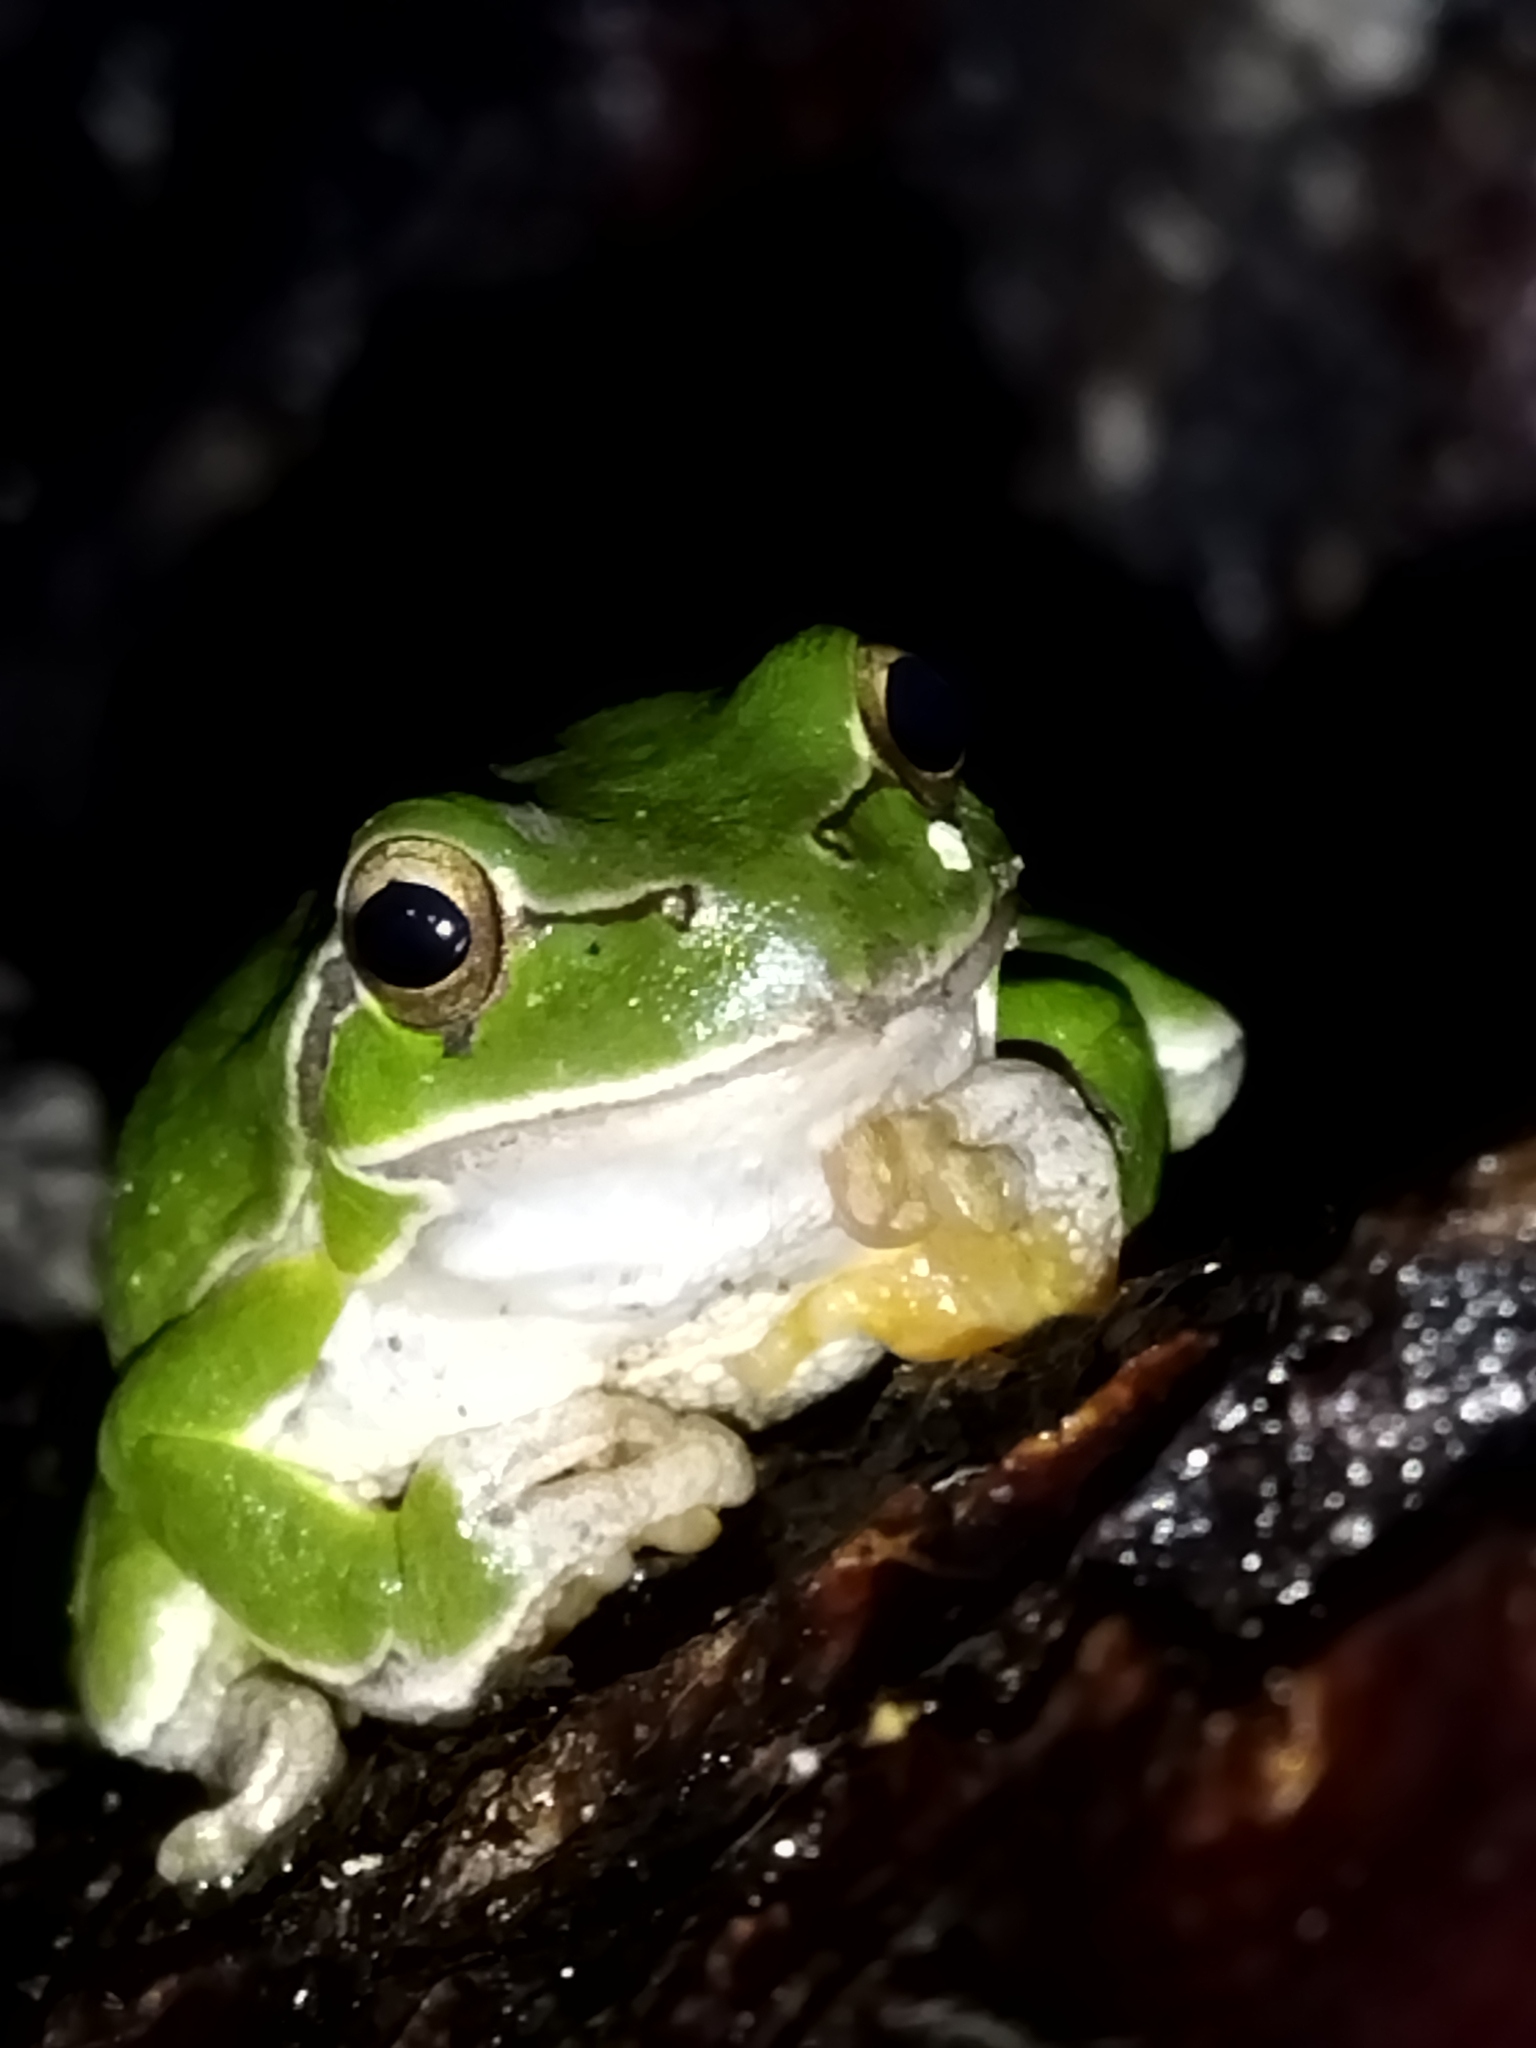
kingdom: Animalia
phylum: Chordata
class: Amphibia
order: Anura
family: Hylidae
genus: Hyla
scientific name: Hyla orientalis
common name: Caucasian treefrog
